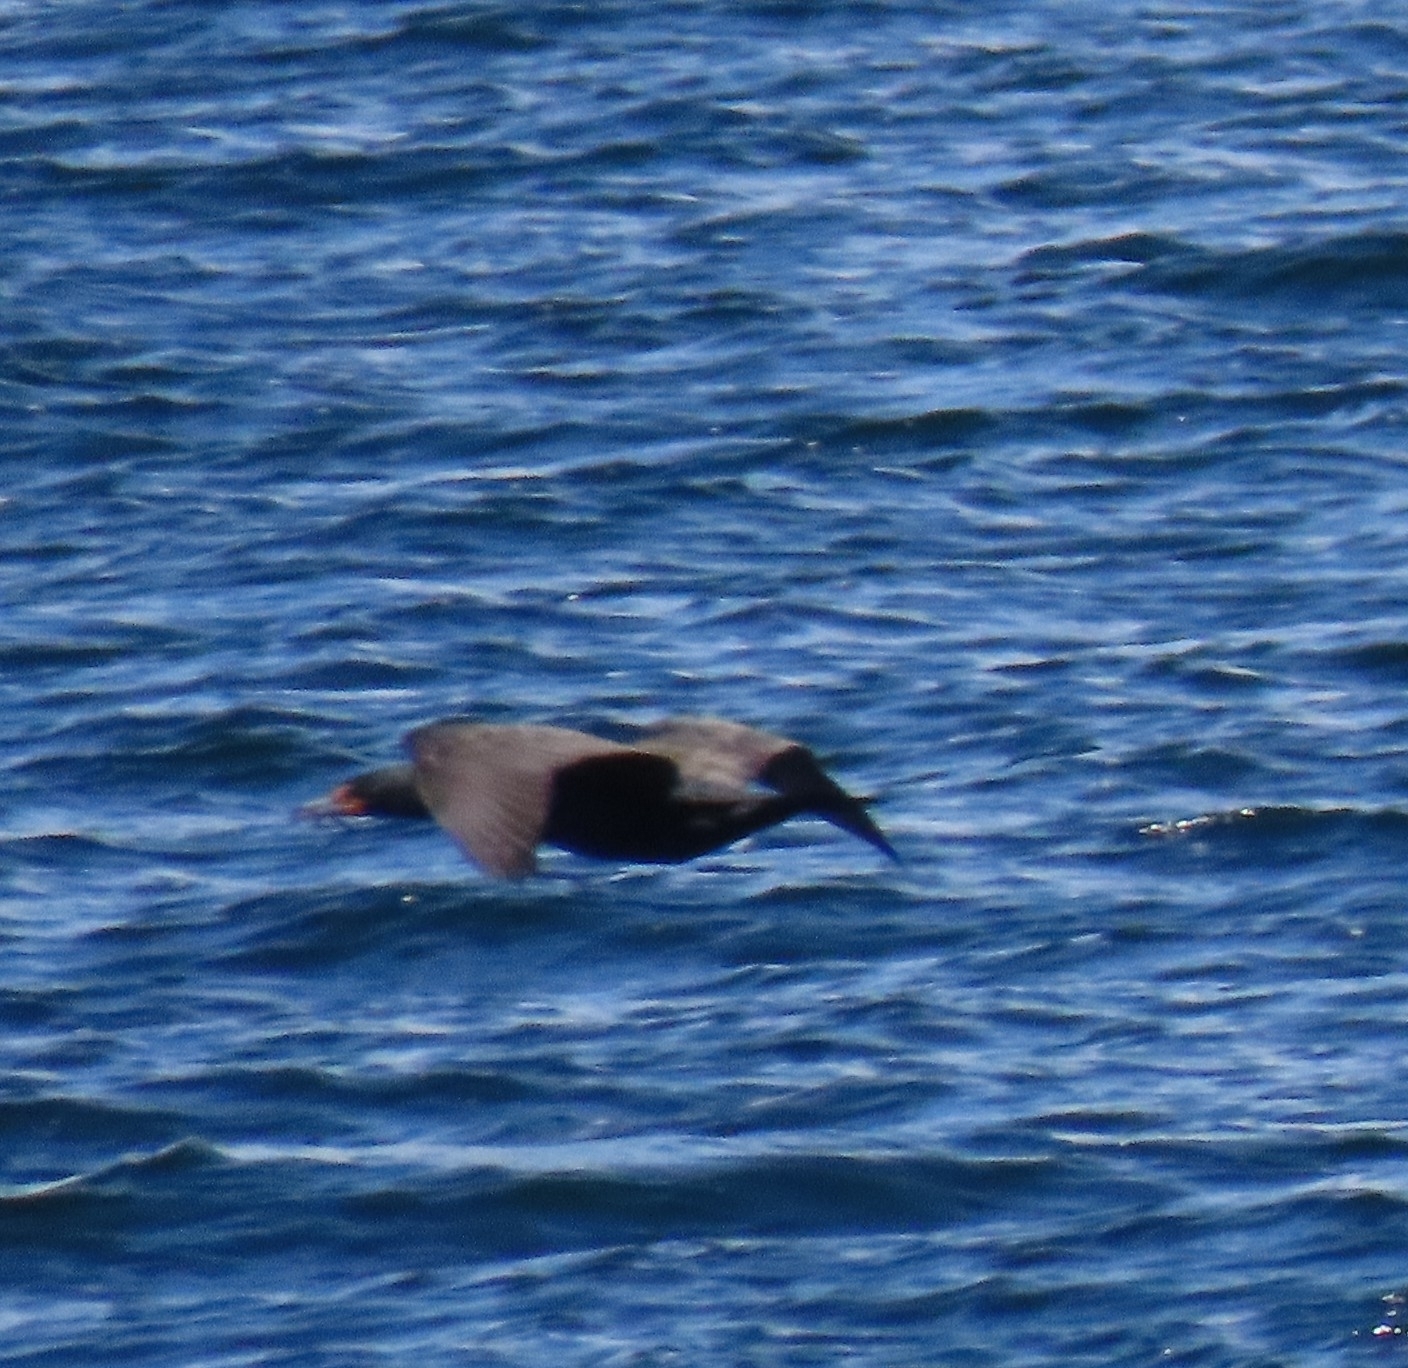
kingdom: Animalia
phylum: Chordata
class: Aves
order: Suliformes
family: Phalacrocoracidae
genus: Phalacrocorax
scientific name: Phalacrocorax auritus
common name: Double-crested cormorant
